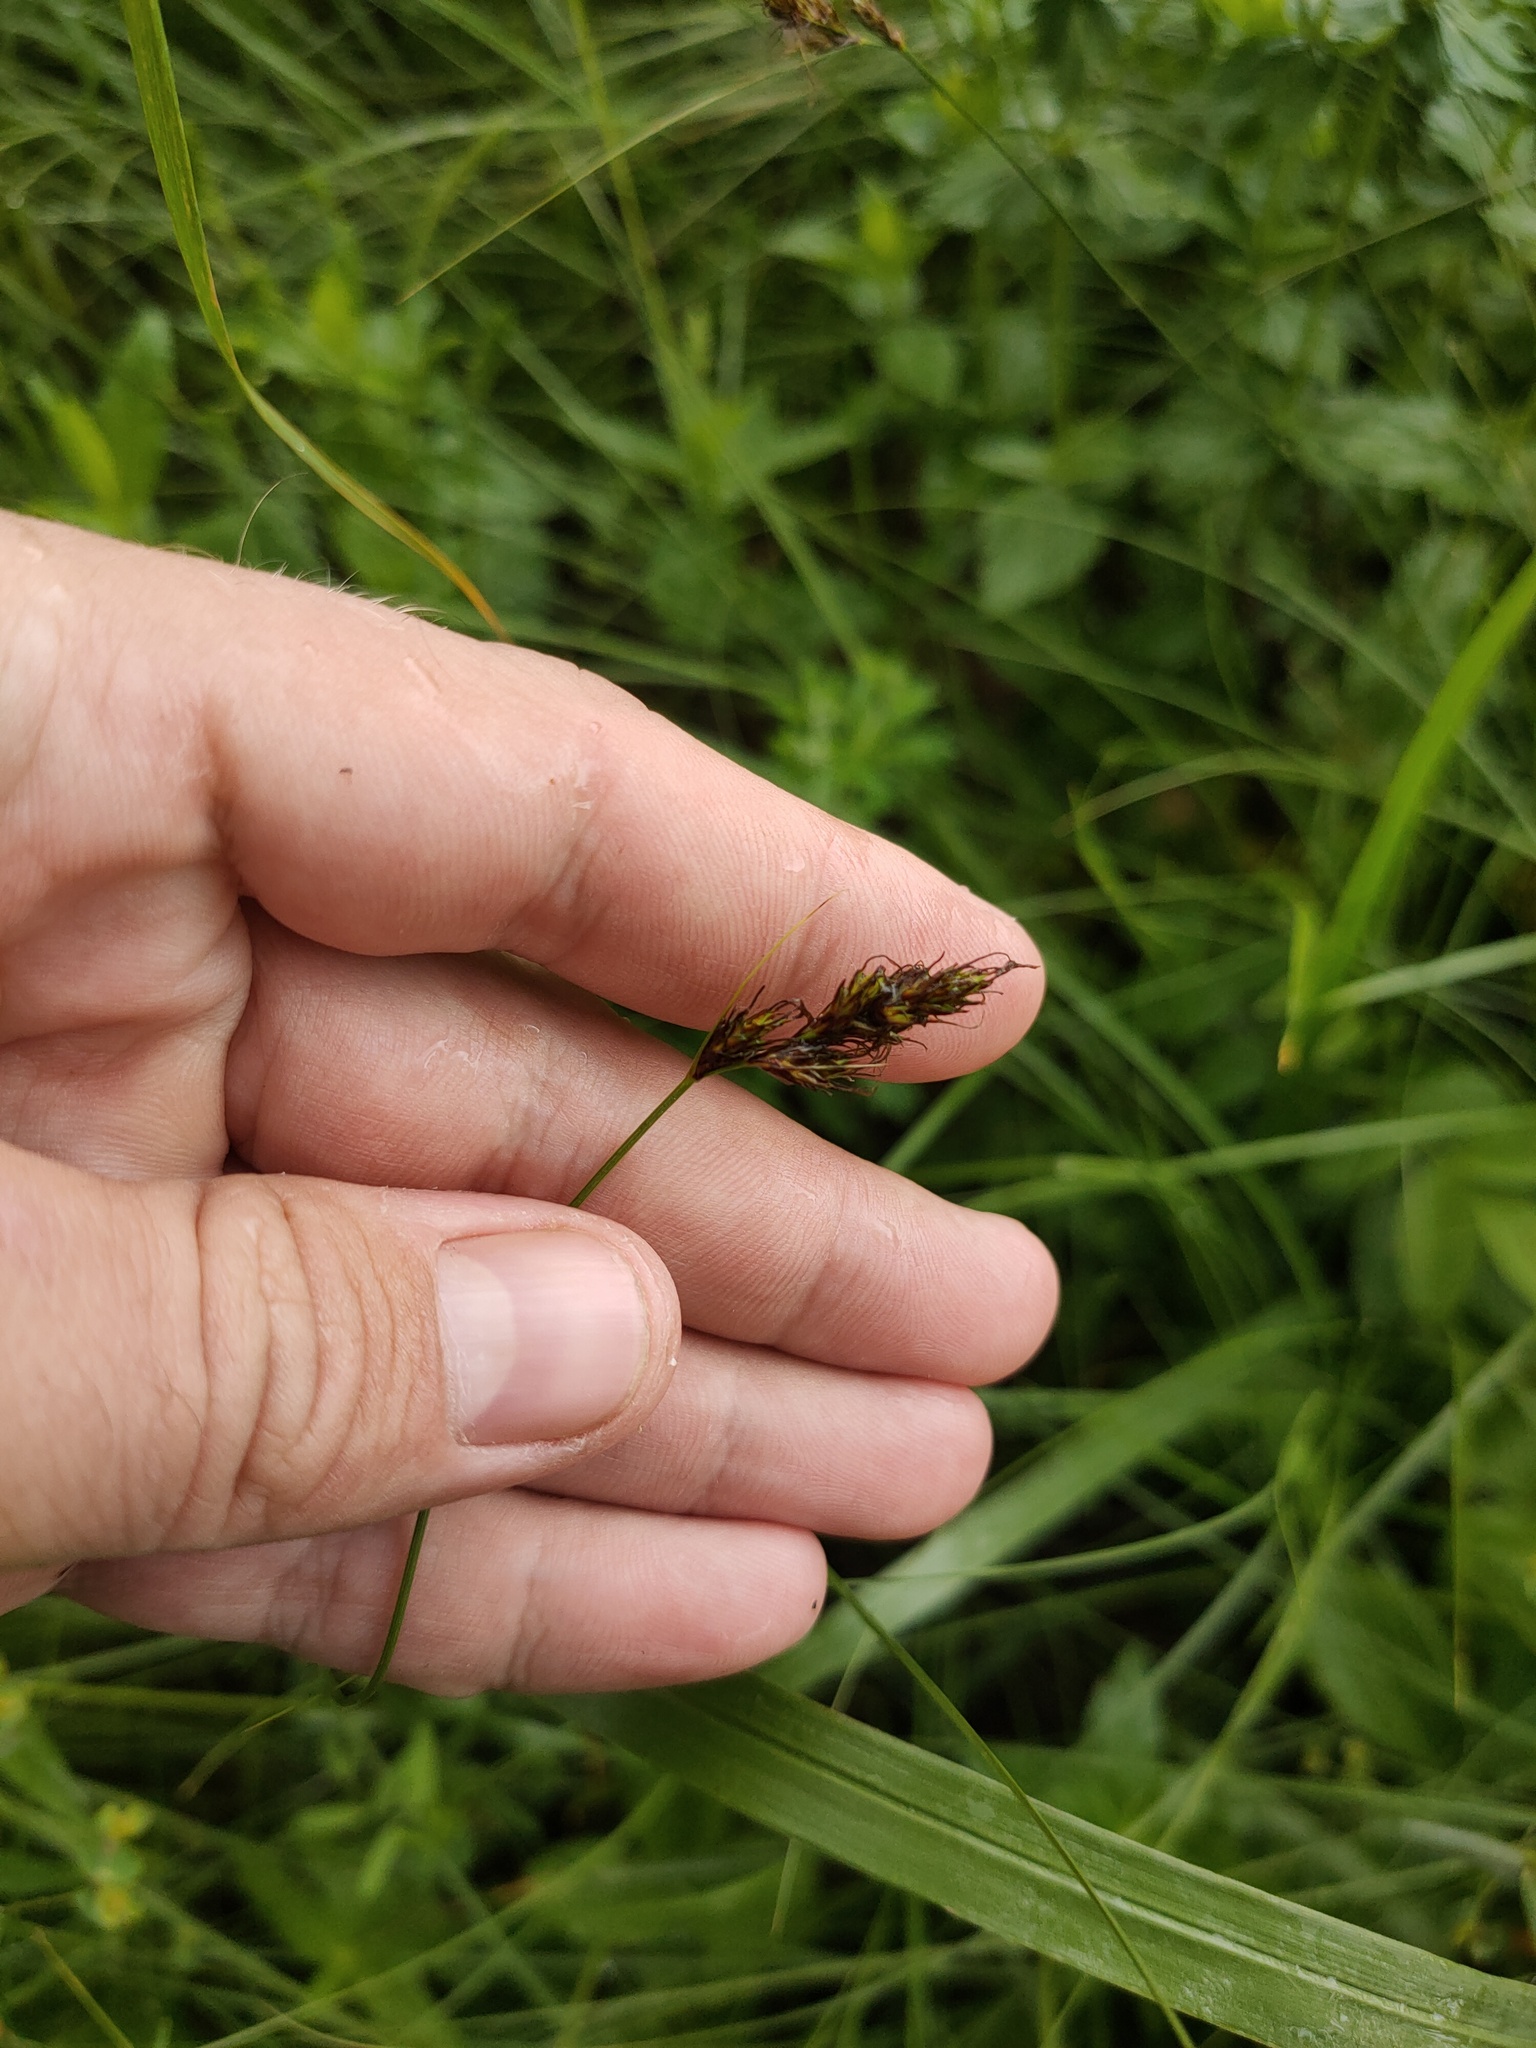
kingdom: Plantae
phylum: Tracheophyta
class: Liliopsida
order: Poales
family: Cyperaceae
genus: Carex
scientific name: Carex praecox
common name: Early sedge
